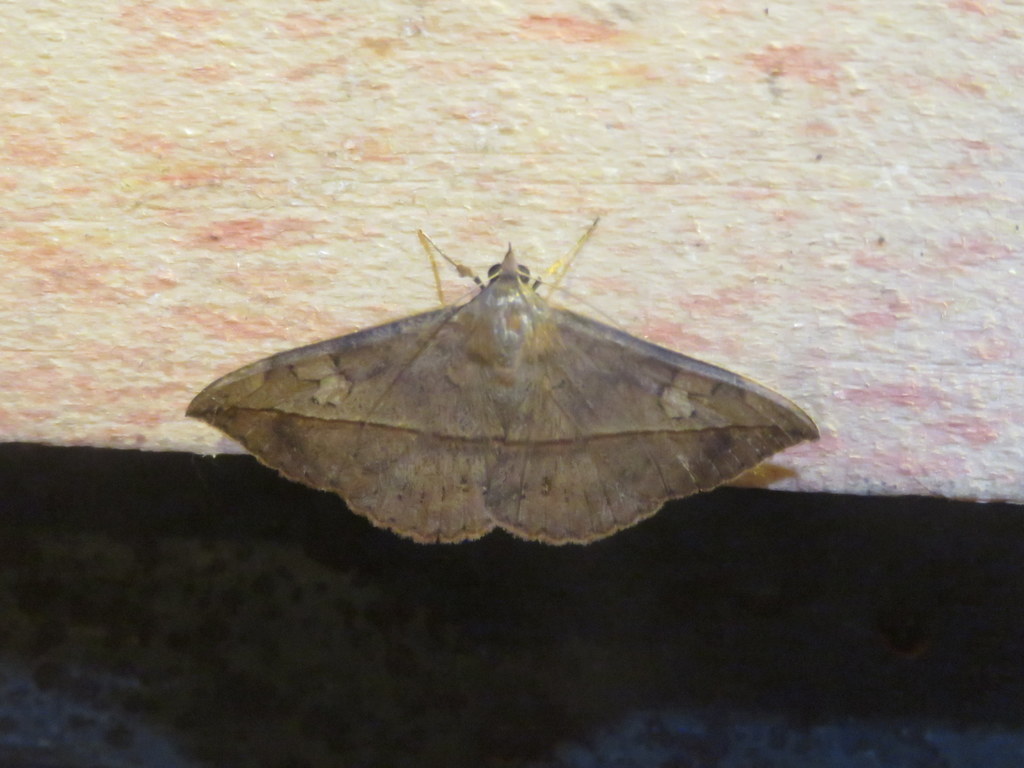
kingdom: Animalia
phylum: Arthropoda
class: Insecta
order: Lepidoptera
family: Erebidae
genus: Anticarsia
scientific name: Anticarsia gemmatalis
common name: Cutworm moth
